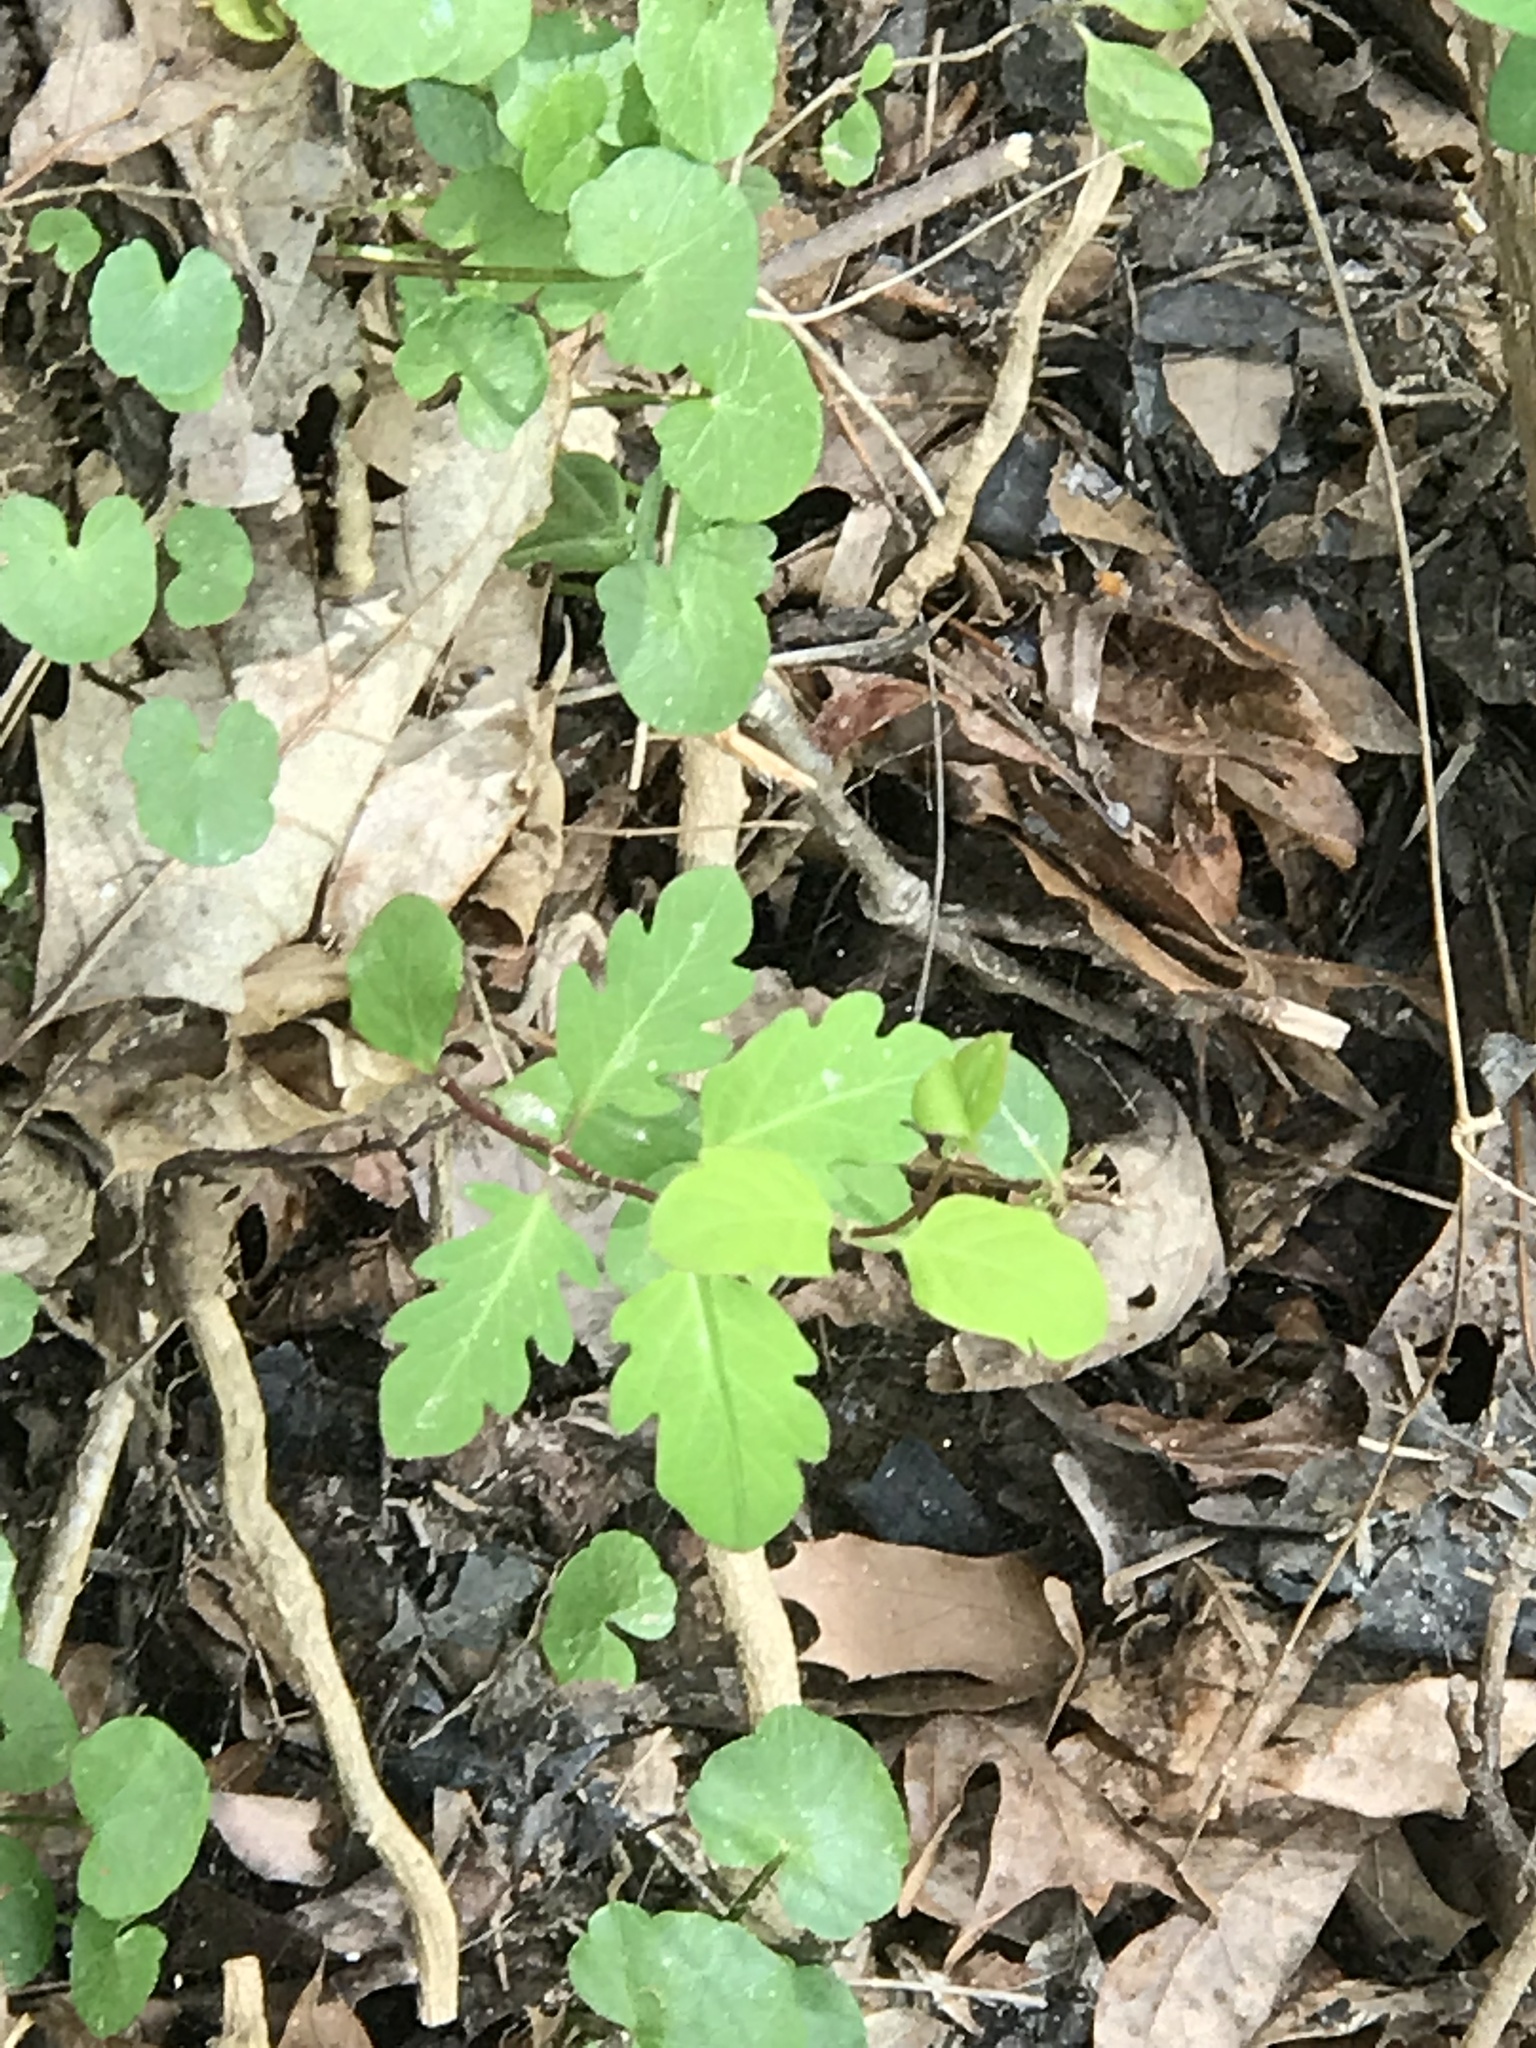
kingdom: Plantae
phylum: Tracheophyta
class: Magnoliopsida
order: Dipsacales
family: Caprifoliaceae
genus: Lonicera
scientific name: Lonicera japonica
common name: Japanese honeysuckle
